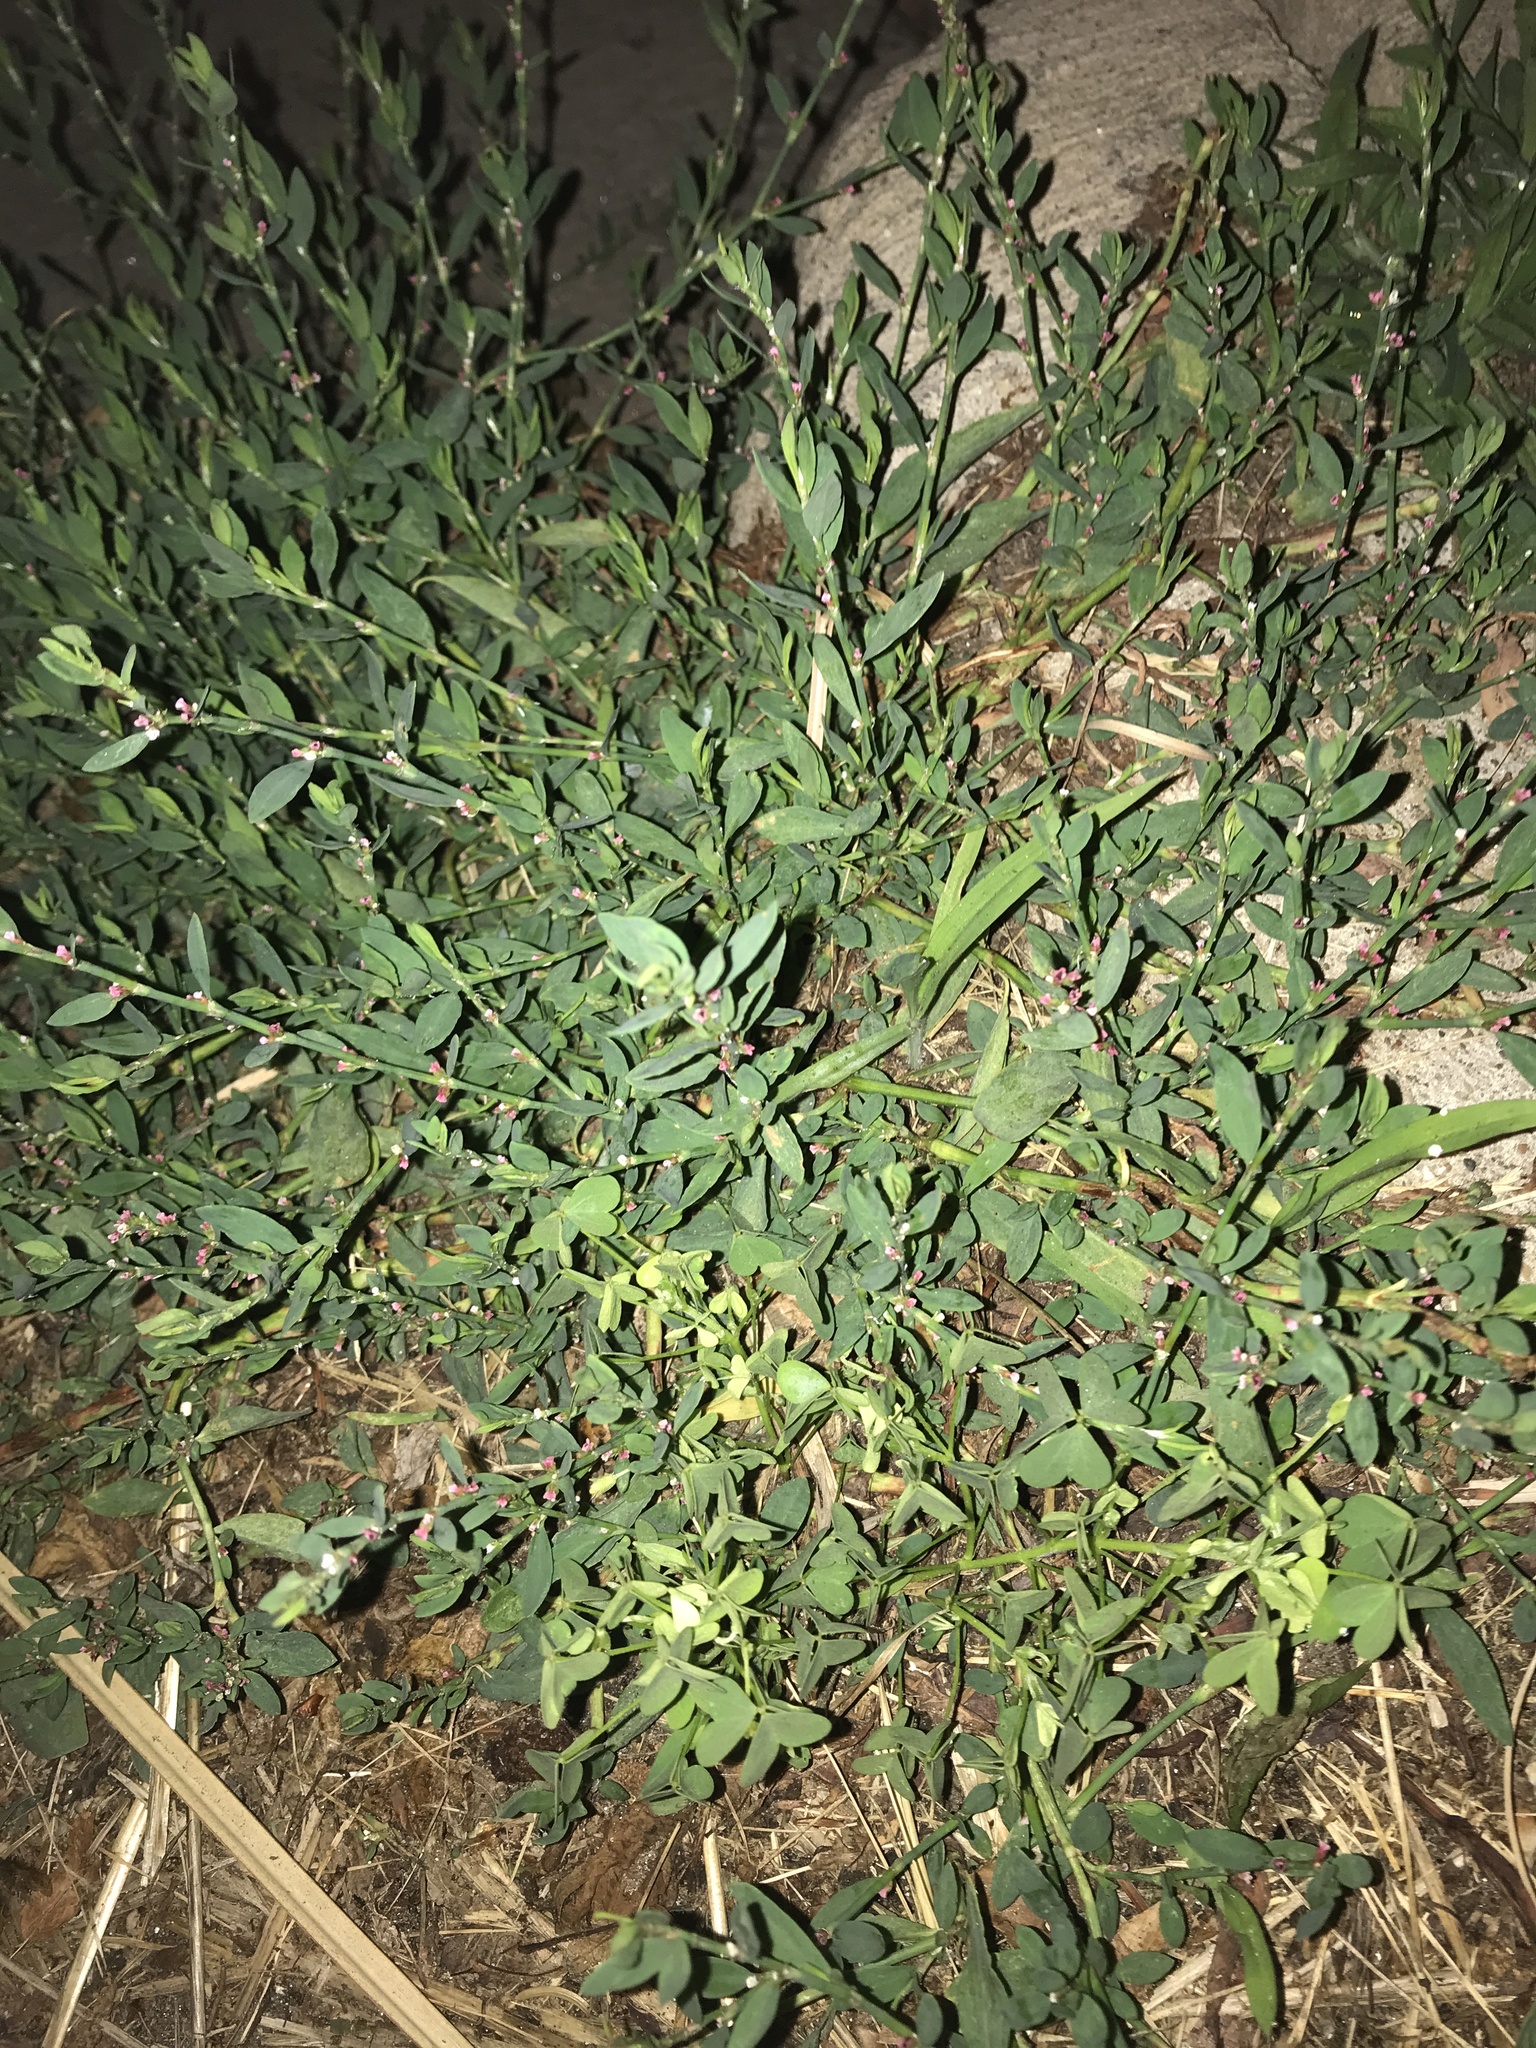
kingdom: Plantae
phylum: Tracheophyta
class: Magnoliopsida
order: Caryophyllales
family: Polygonaceae
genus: Polygonum
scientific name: Polygonum aviculare
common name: Prostrate knotweed
